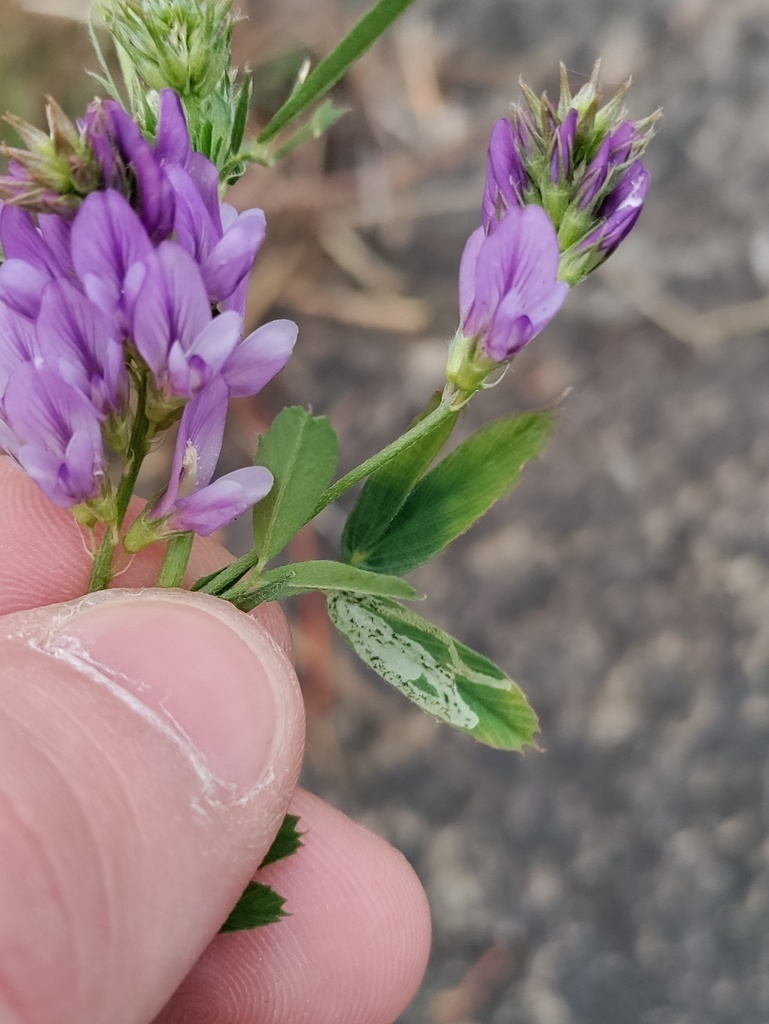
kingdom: Plantae
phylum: Tracheophyta
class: Magnoliopsida
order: Fabales
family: Fabaceae
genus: Medicago
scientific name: Medicago
